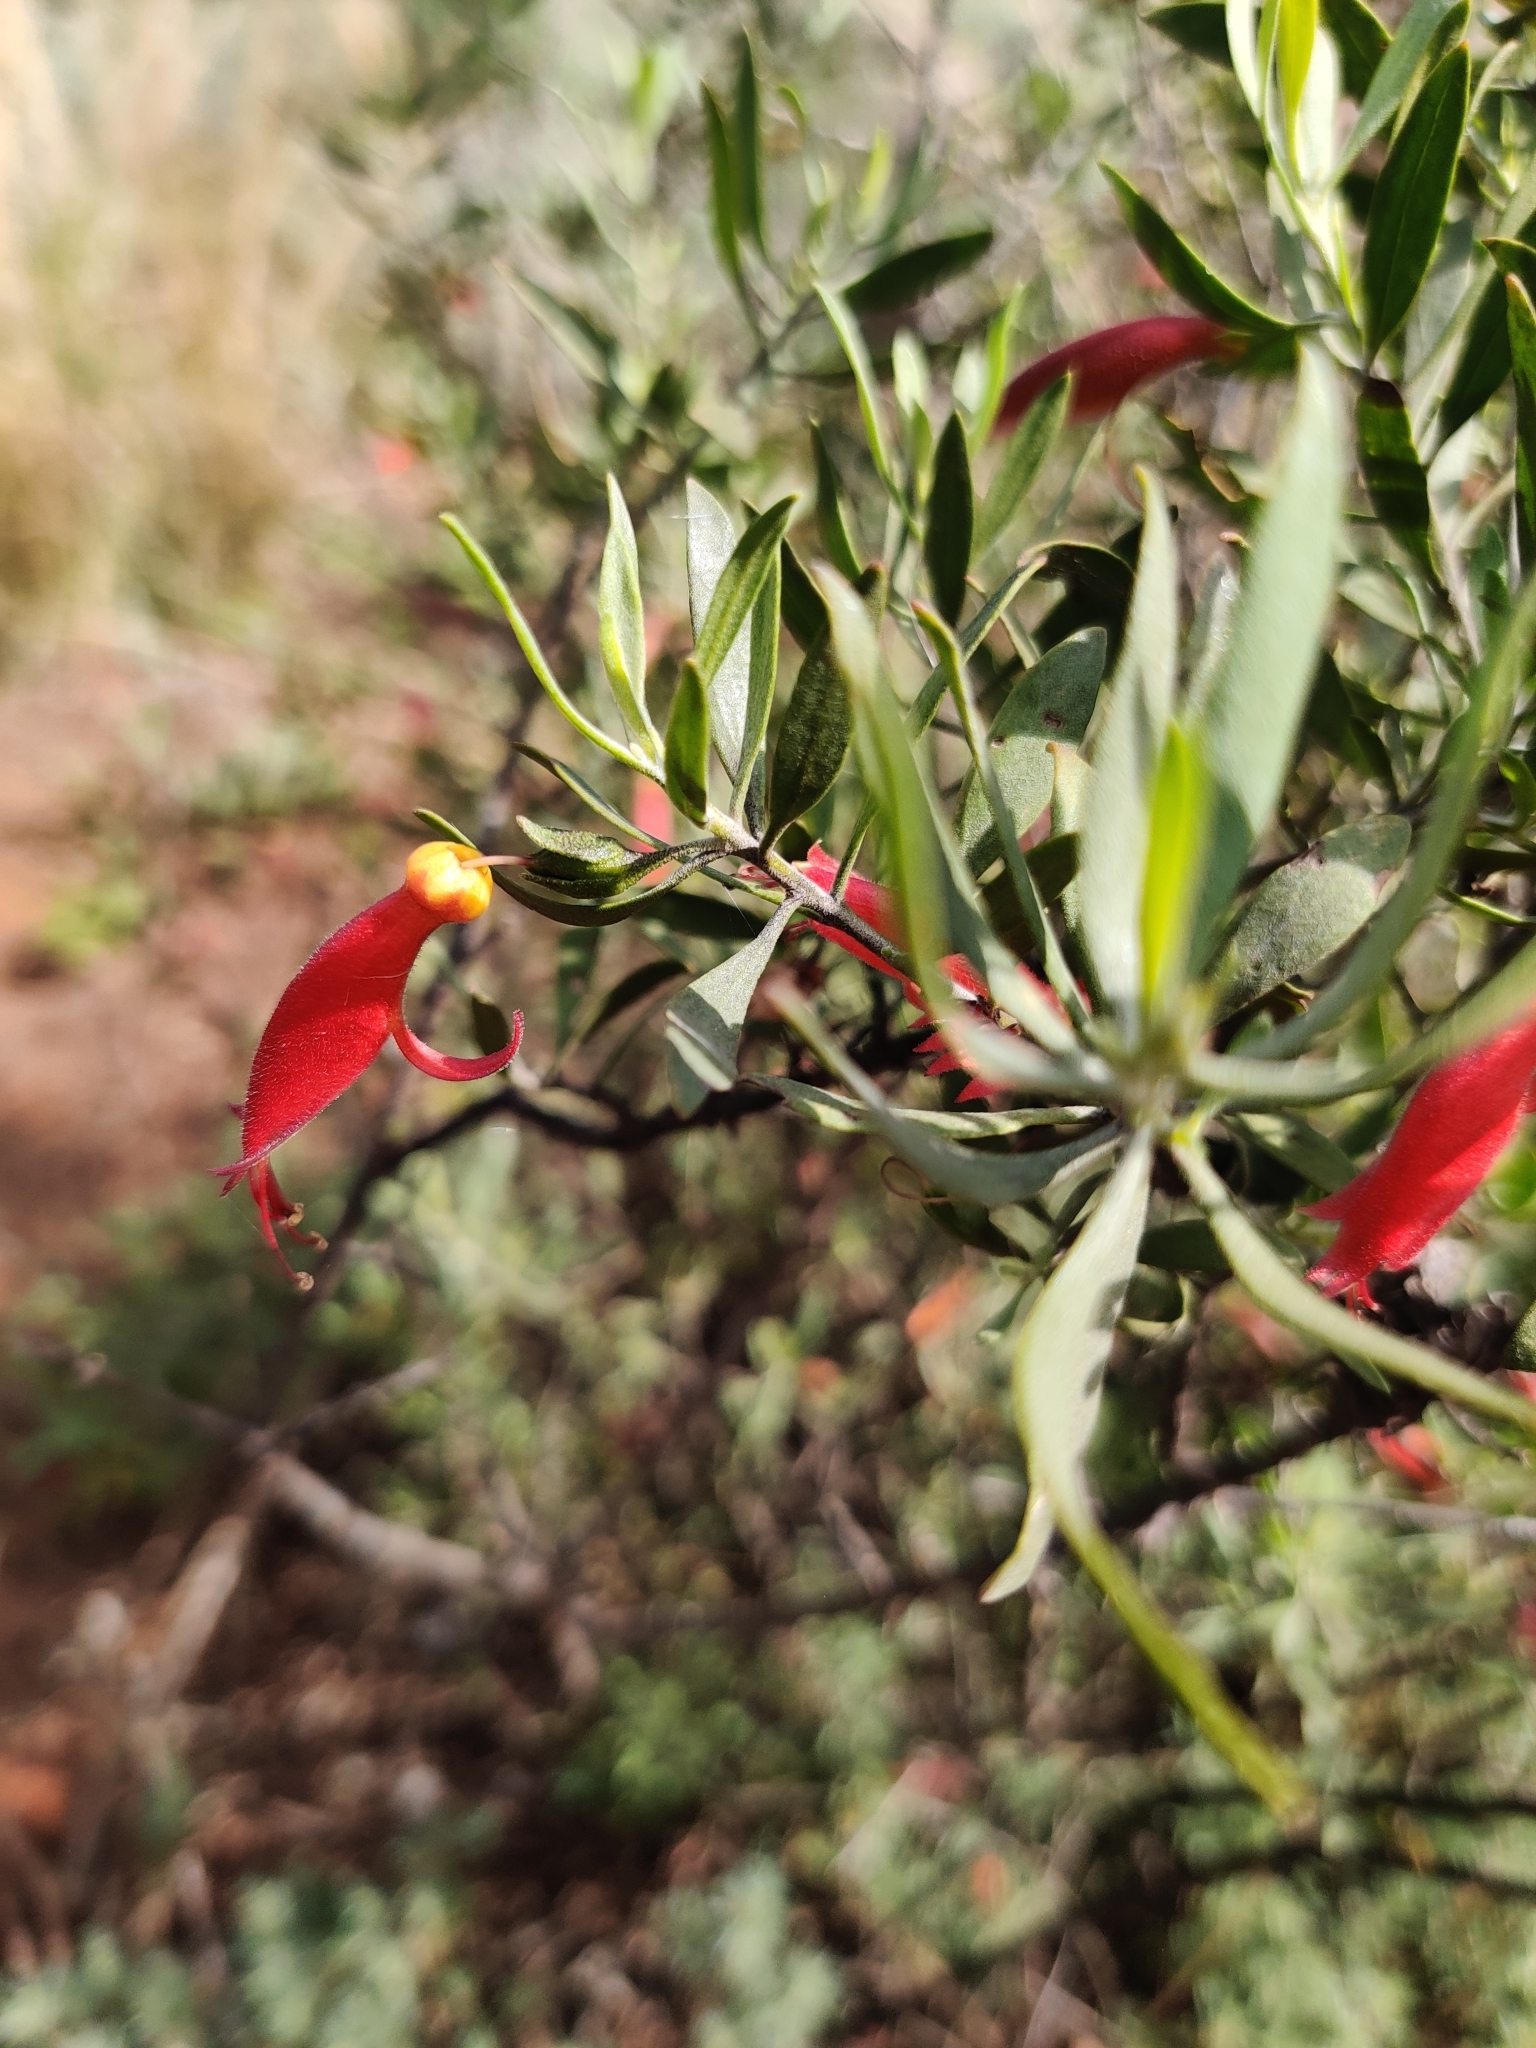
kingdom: Plantae
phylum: Tracheophyta
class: Magnoliopsida
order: Lamiales
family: Scrophulariaceae
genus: Eremophila
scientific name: Eremophila glabra
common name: Black-fuchsia
